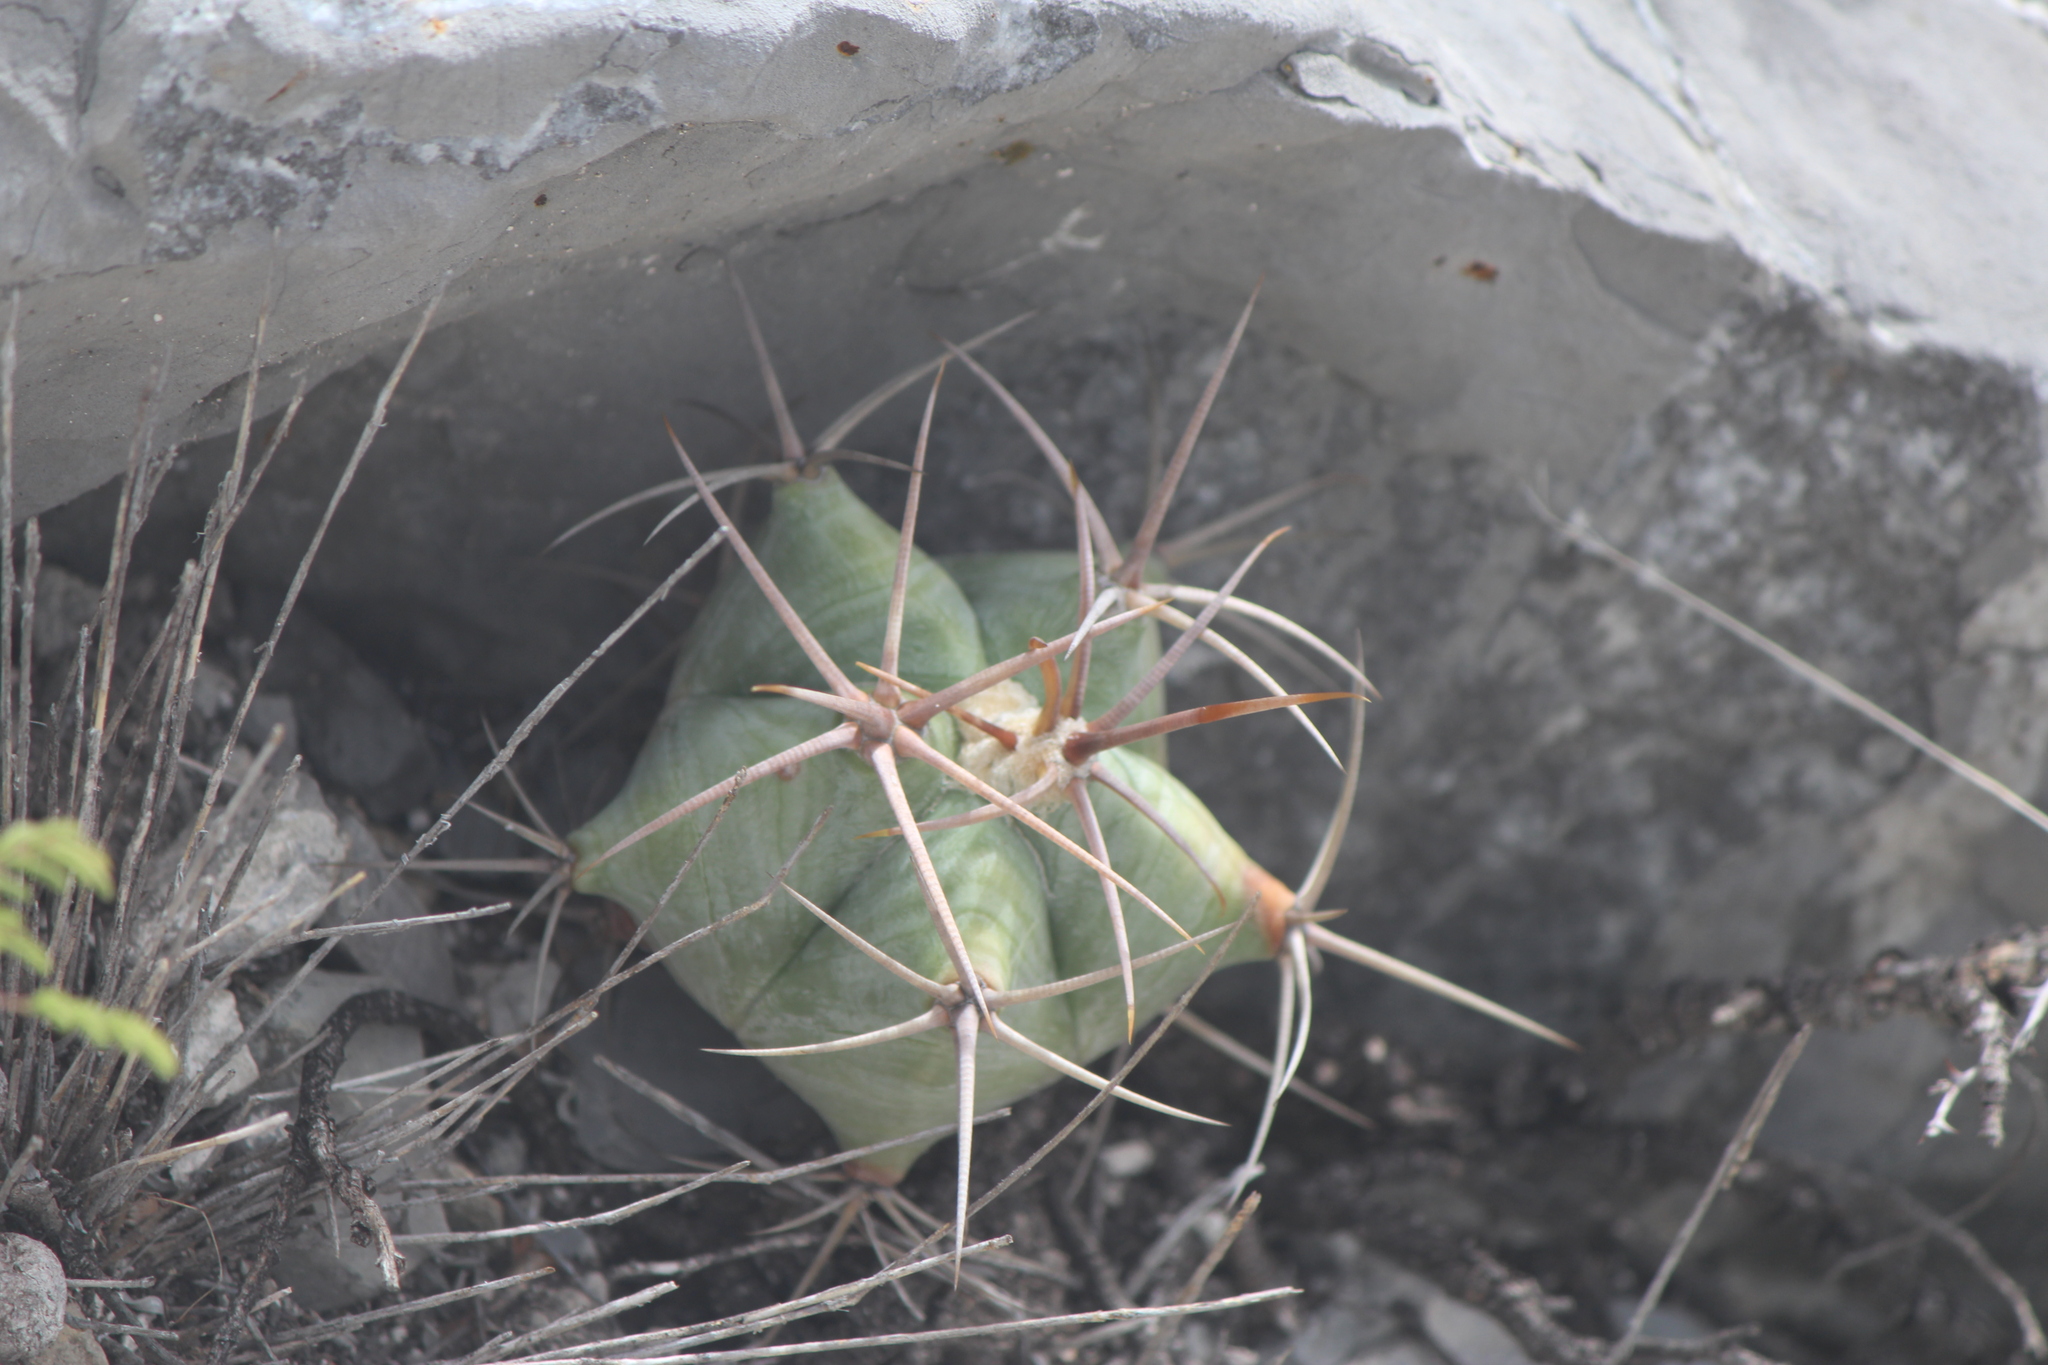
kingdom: Plantae
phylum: Tracheophyta
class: Magnoliopsida
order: Caryophyllales
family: Cactaceae
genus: Echinocactus
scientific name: Echinocactus platyacanthus
